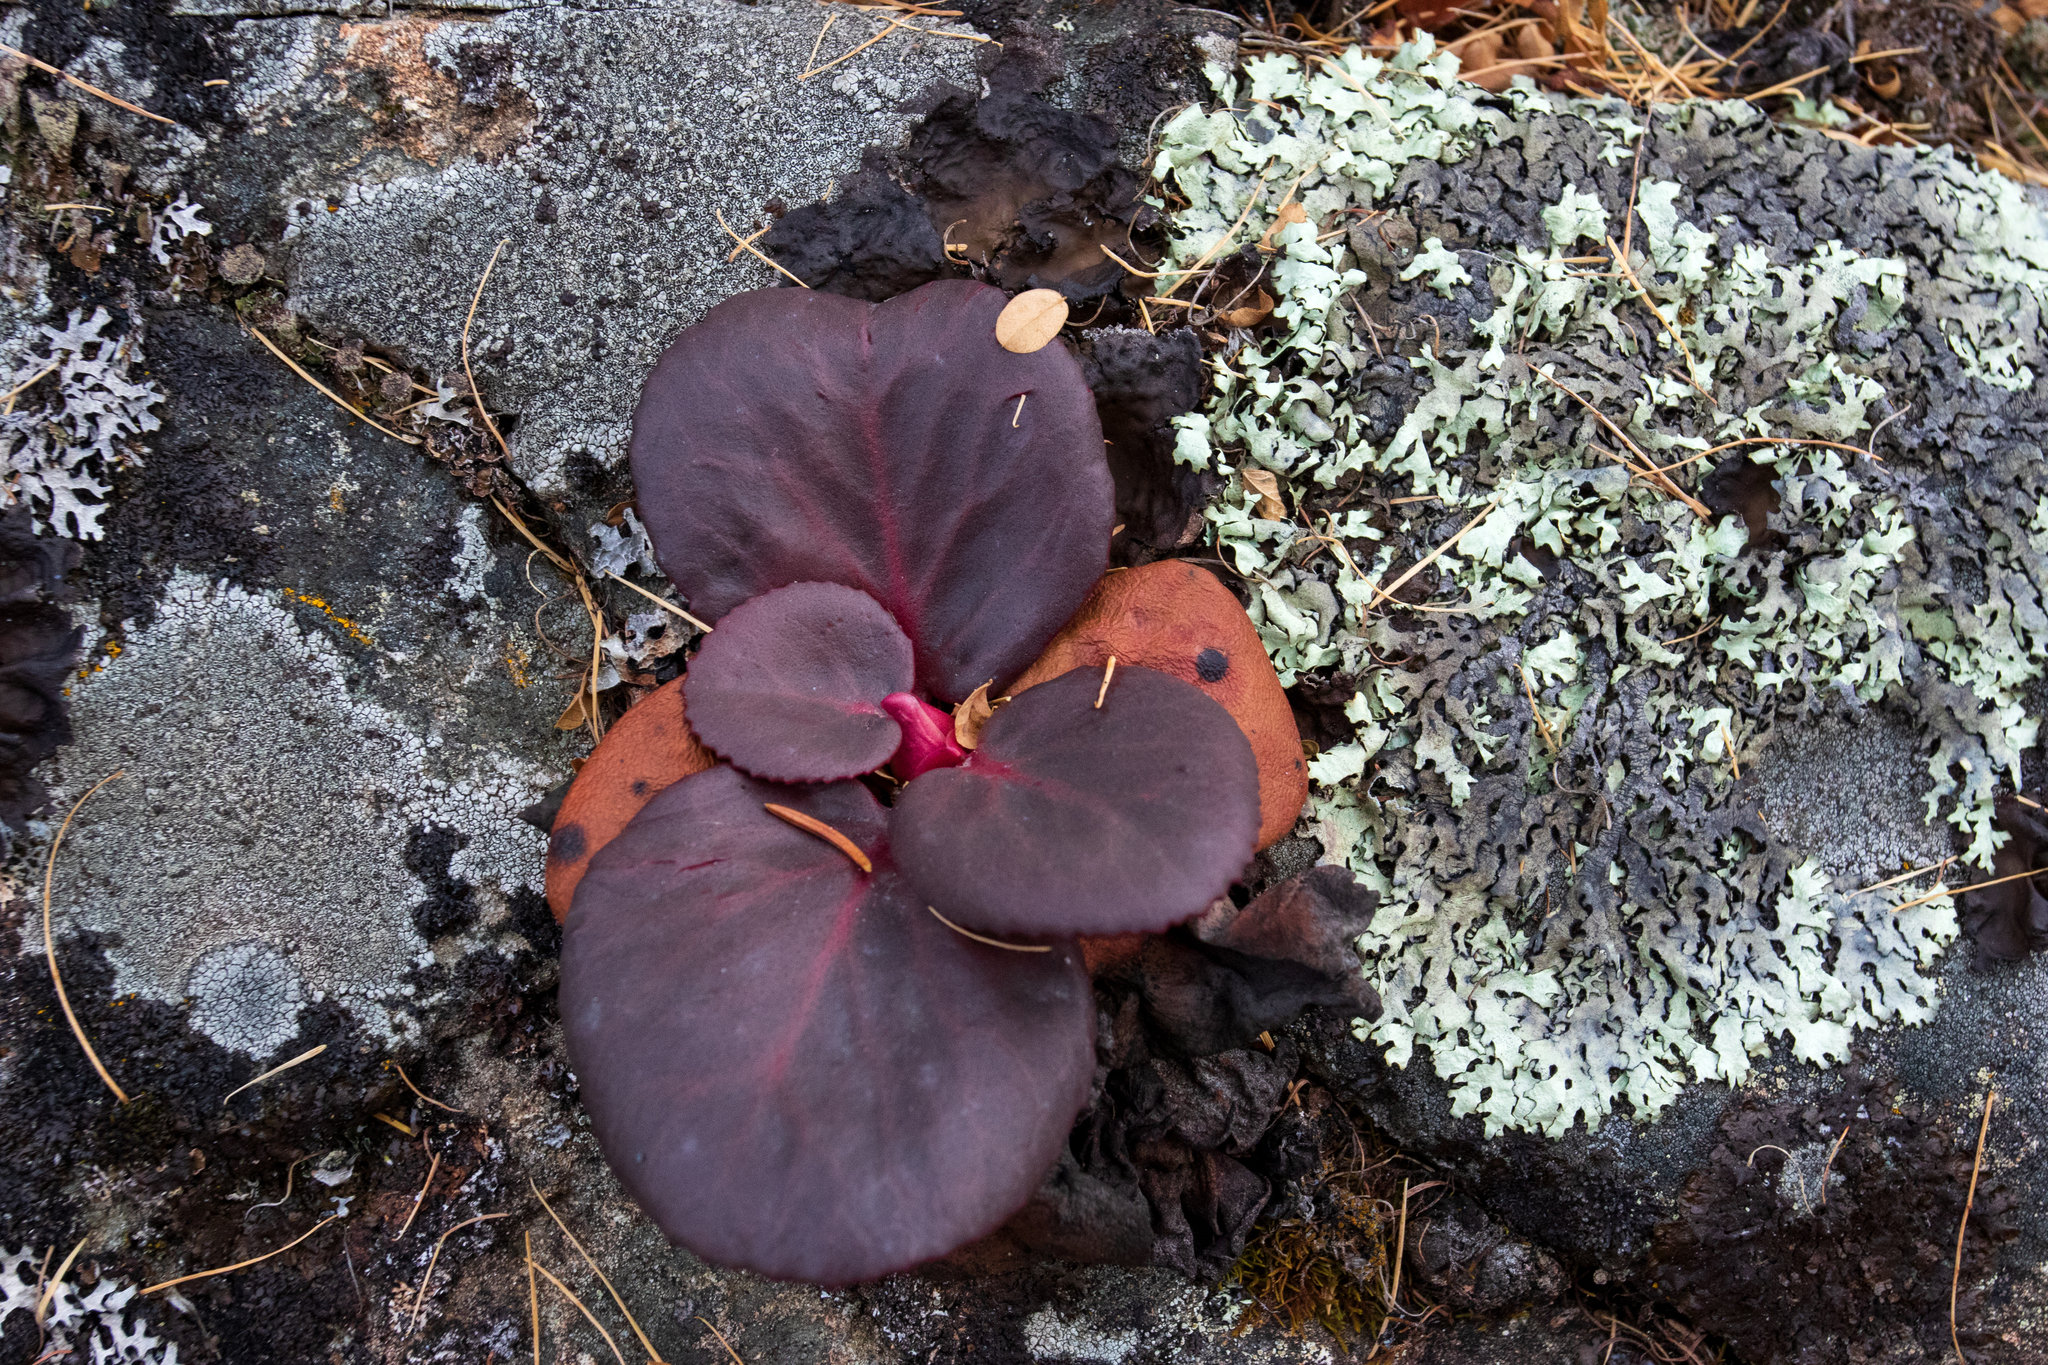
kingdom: Plantae
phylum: Tracheophyta
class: Magnoliopsida
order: Saxifragales
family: Saxifragaceae
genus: Bergenia
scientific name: Bergenia crassifolia
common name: Elephant-ears
